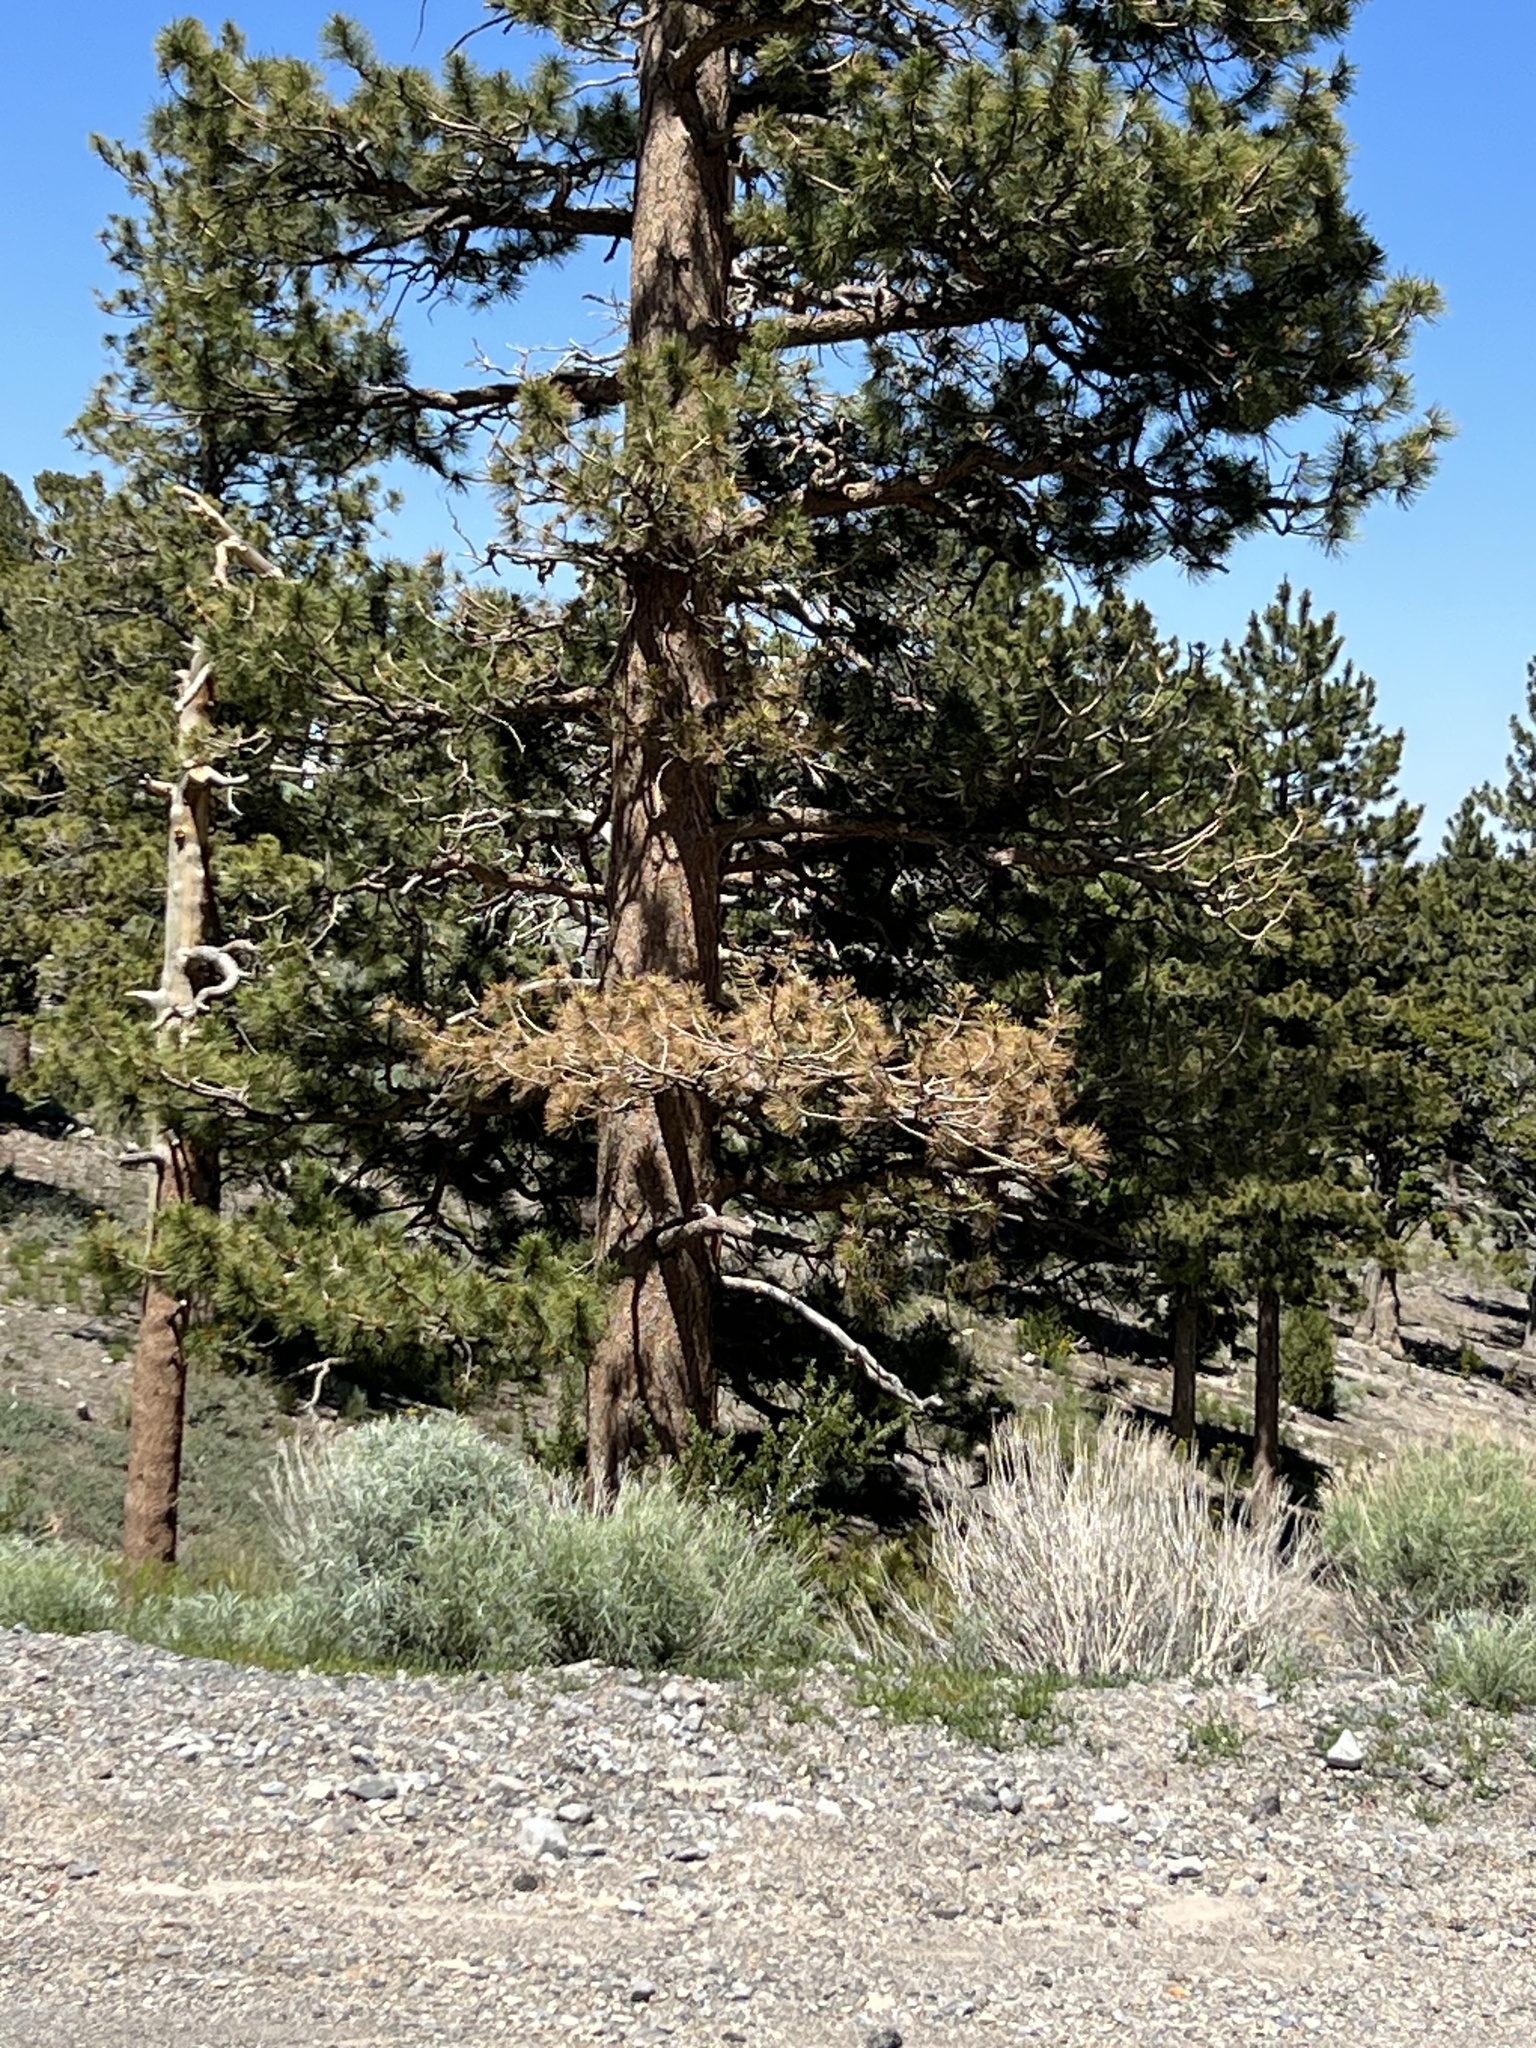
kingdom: Plantae
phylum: Tracheophyta
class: Pinopsida
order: Pinales
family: Pinaceae
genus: Pinus
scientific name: Pinus ponderosa
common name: Western yellow-pine
